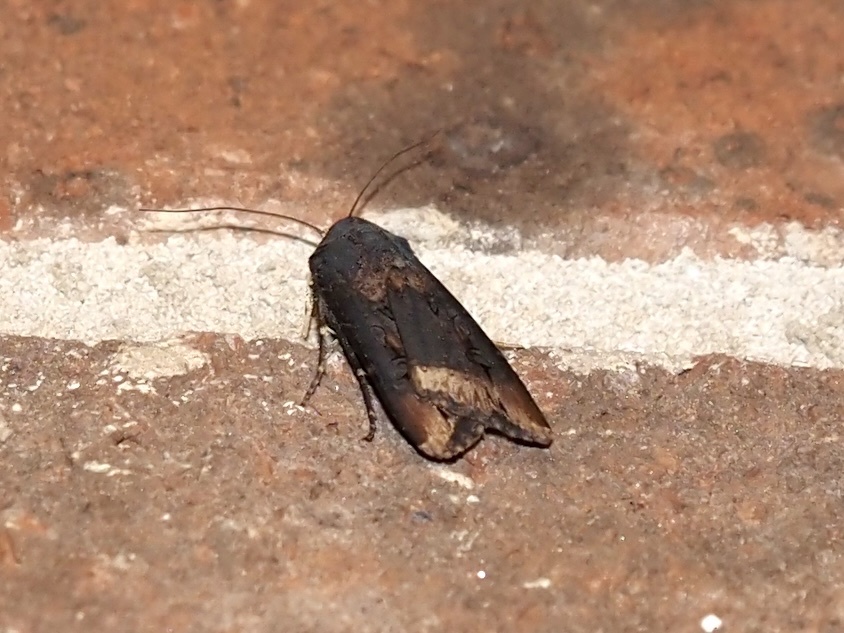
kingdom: Animalia
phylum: Arthropoda
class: Insecta
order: Lepidoptera
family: Noctuidae
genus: Agrotis
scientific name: Agrotis ipsilon
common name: Dark sword-grass
